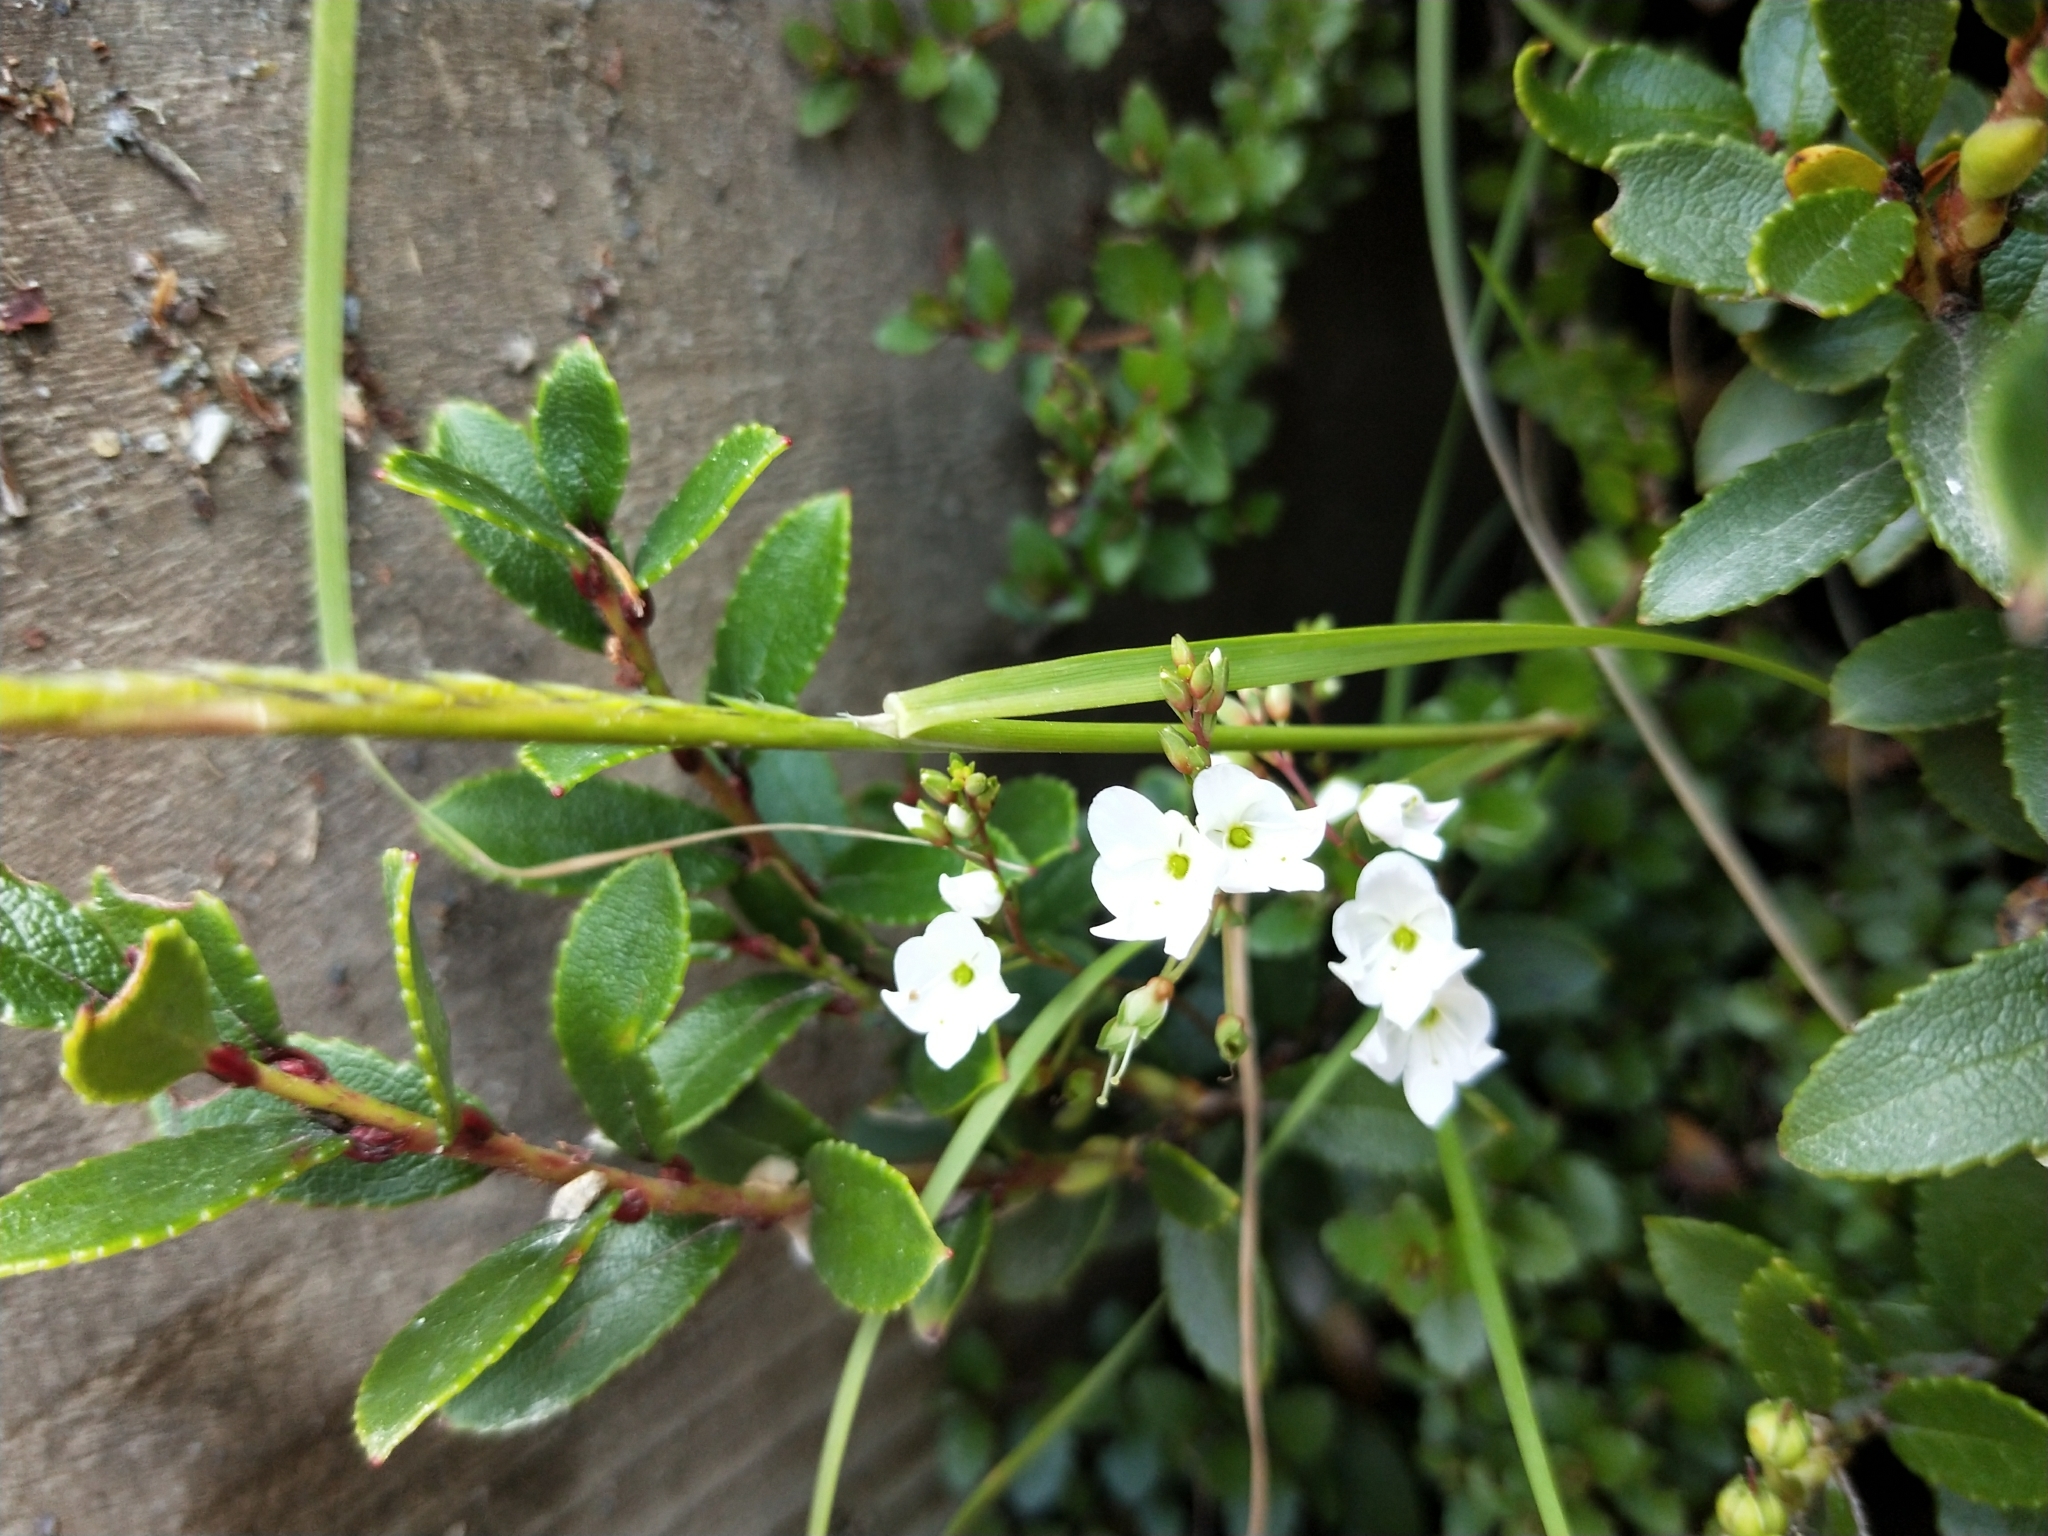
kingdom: Plantae
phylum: Tracheophyta
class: Magnoliopsida
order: Lamiales
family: Plantaginaceae
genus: Veronica
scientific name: Veronica lyallii
